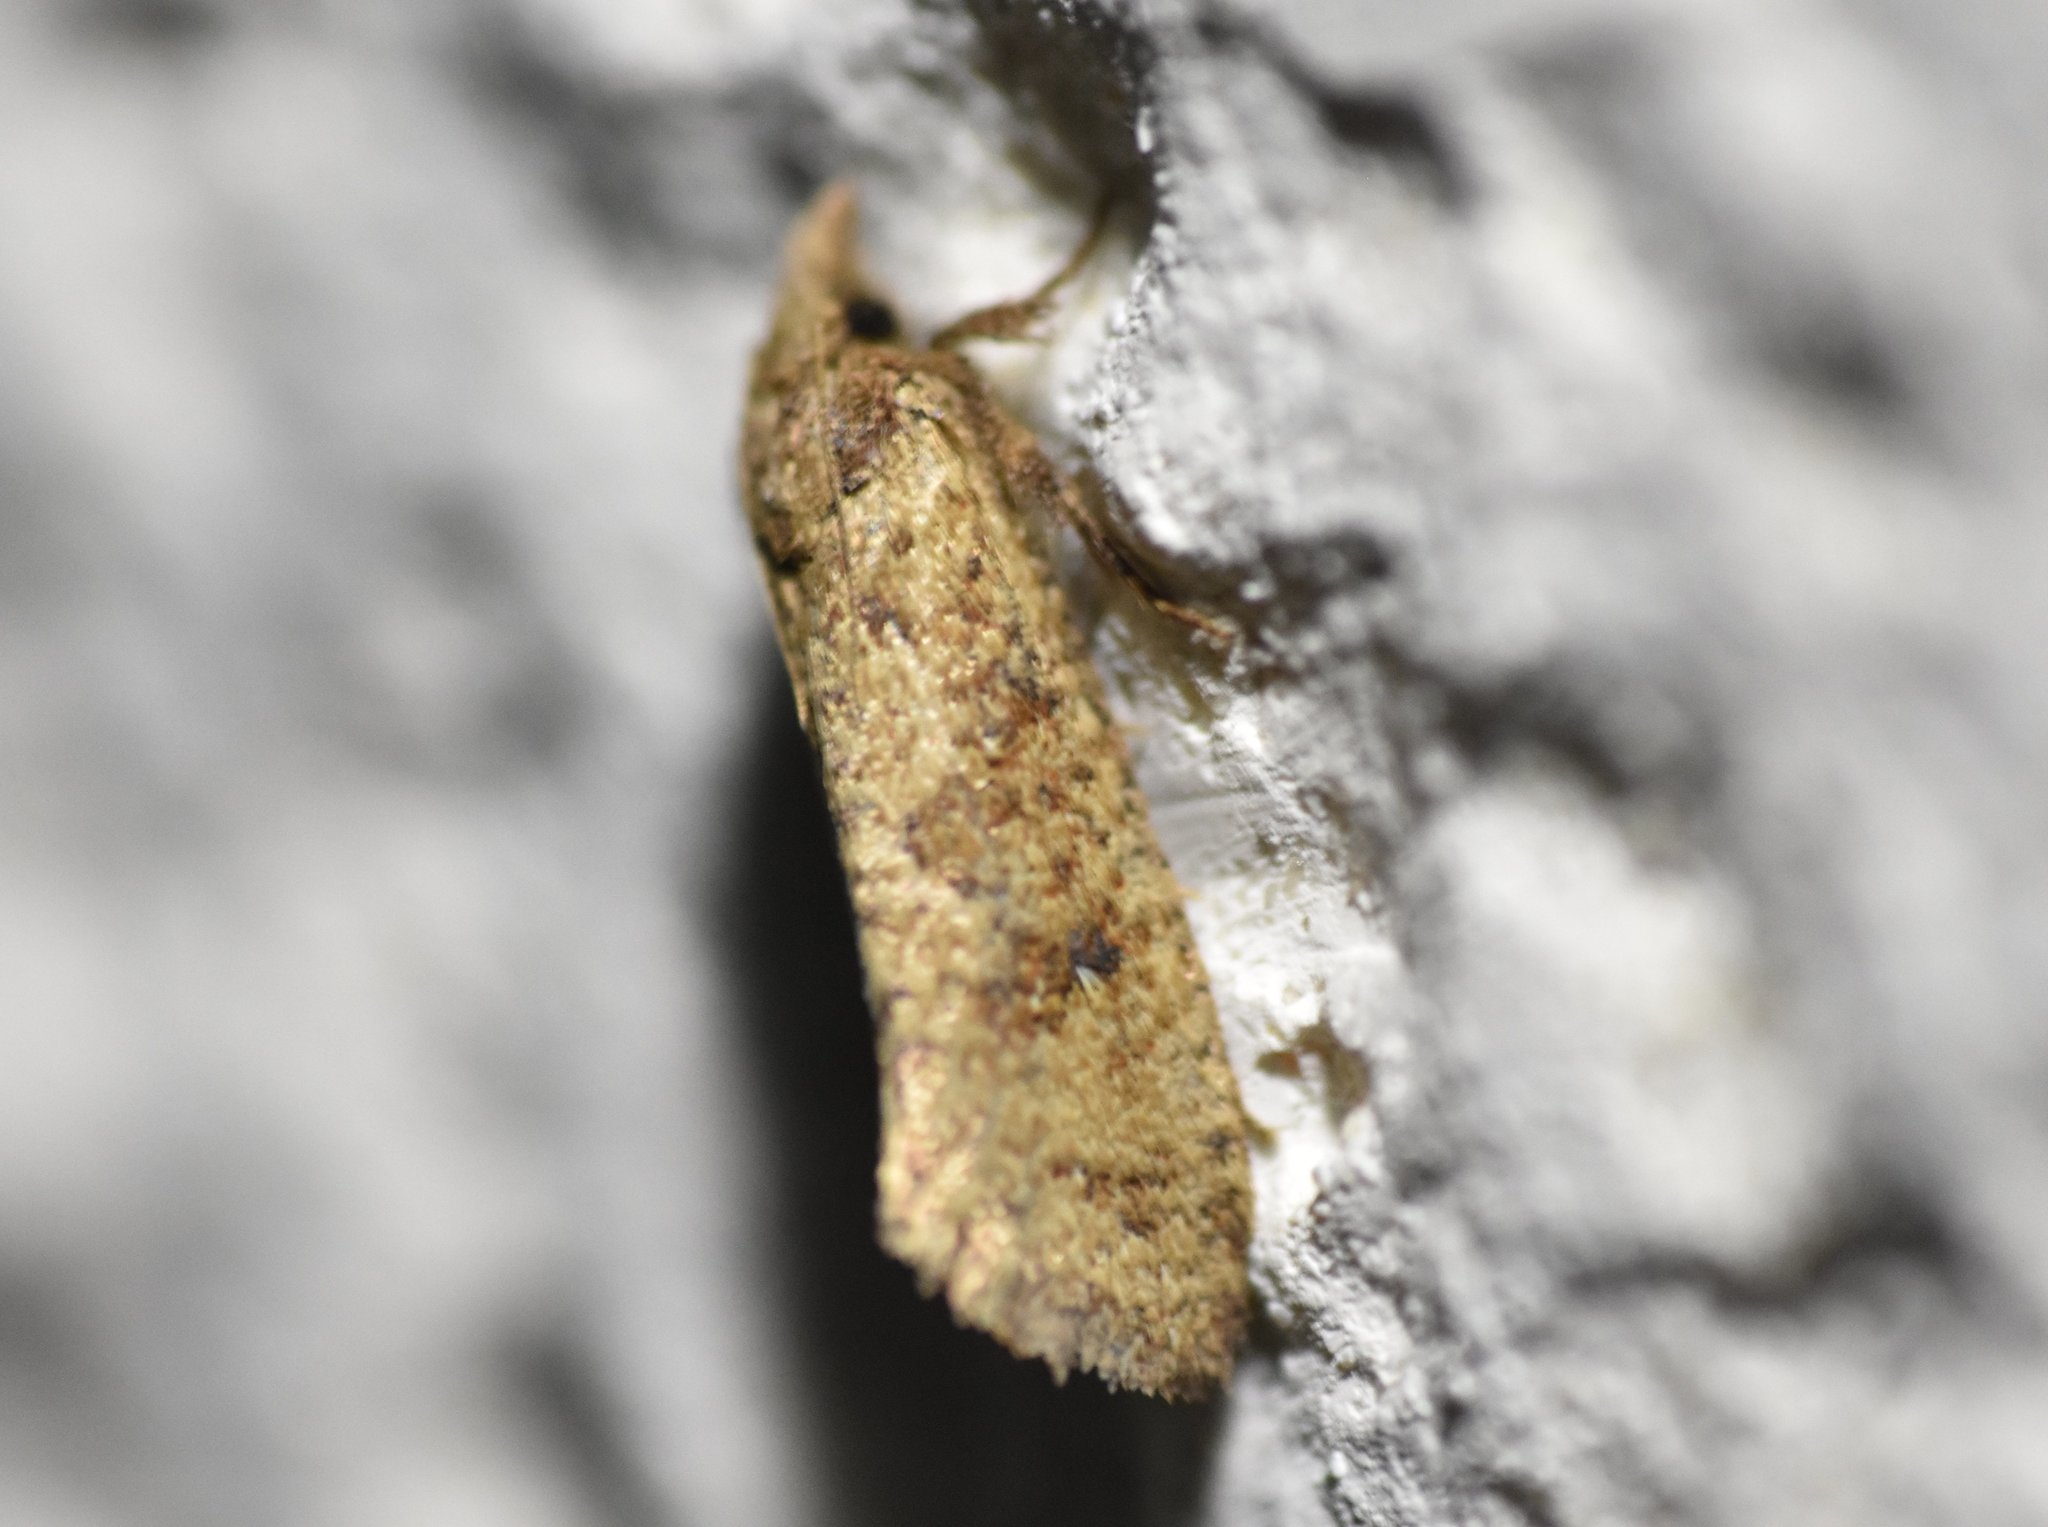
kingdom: Animalia
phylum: Arthropoda
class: Insecta
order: Lepidoptera
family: Tineidae
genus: Acrolophus
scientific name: Acrolophus walsinghami
